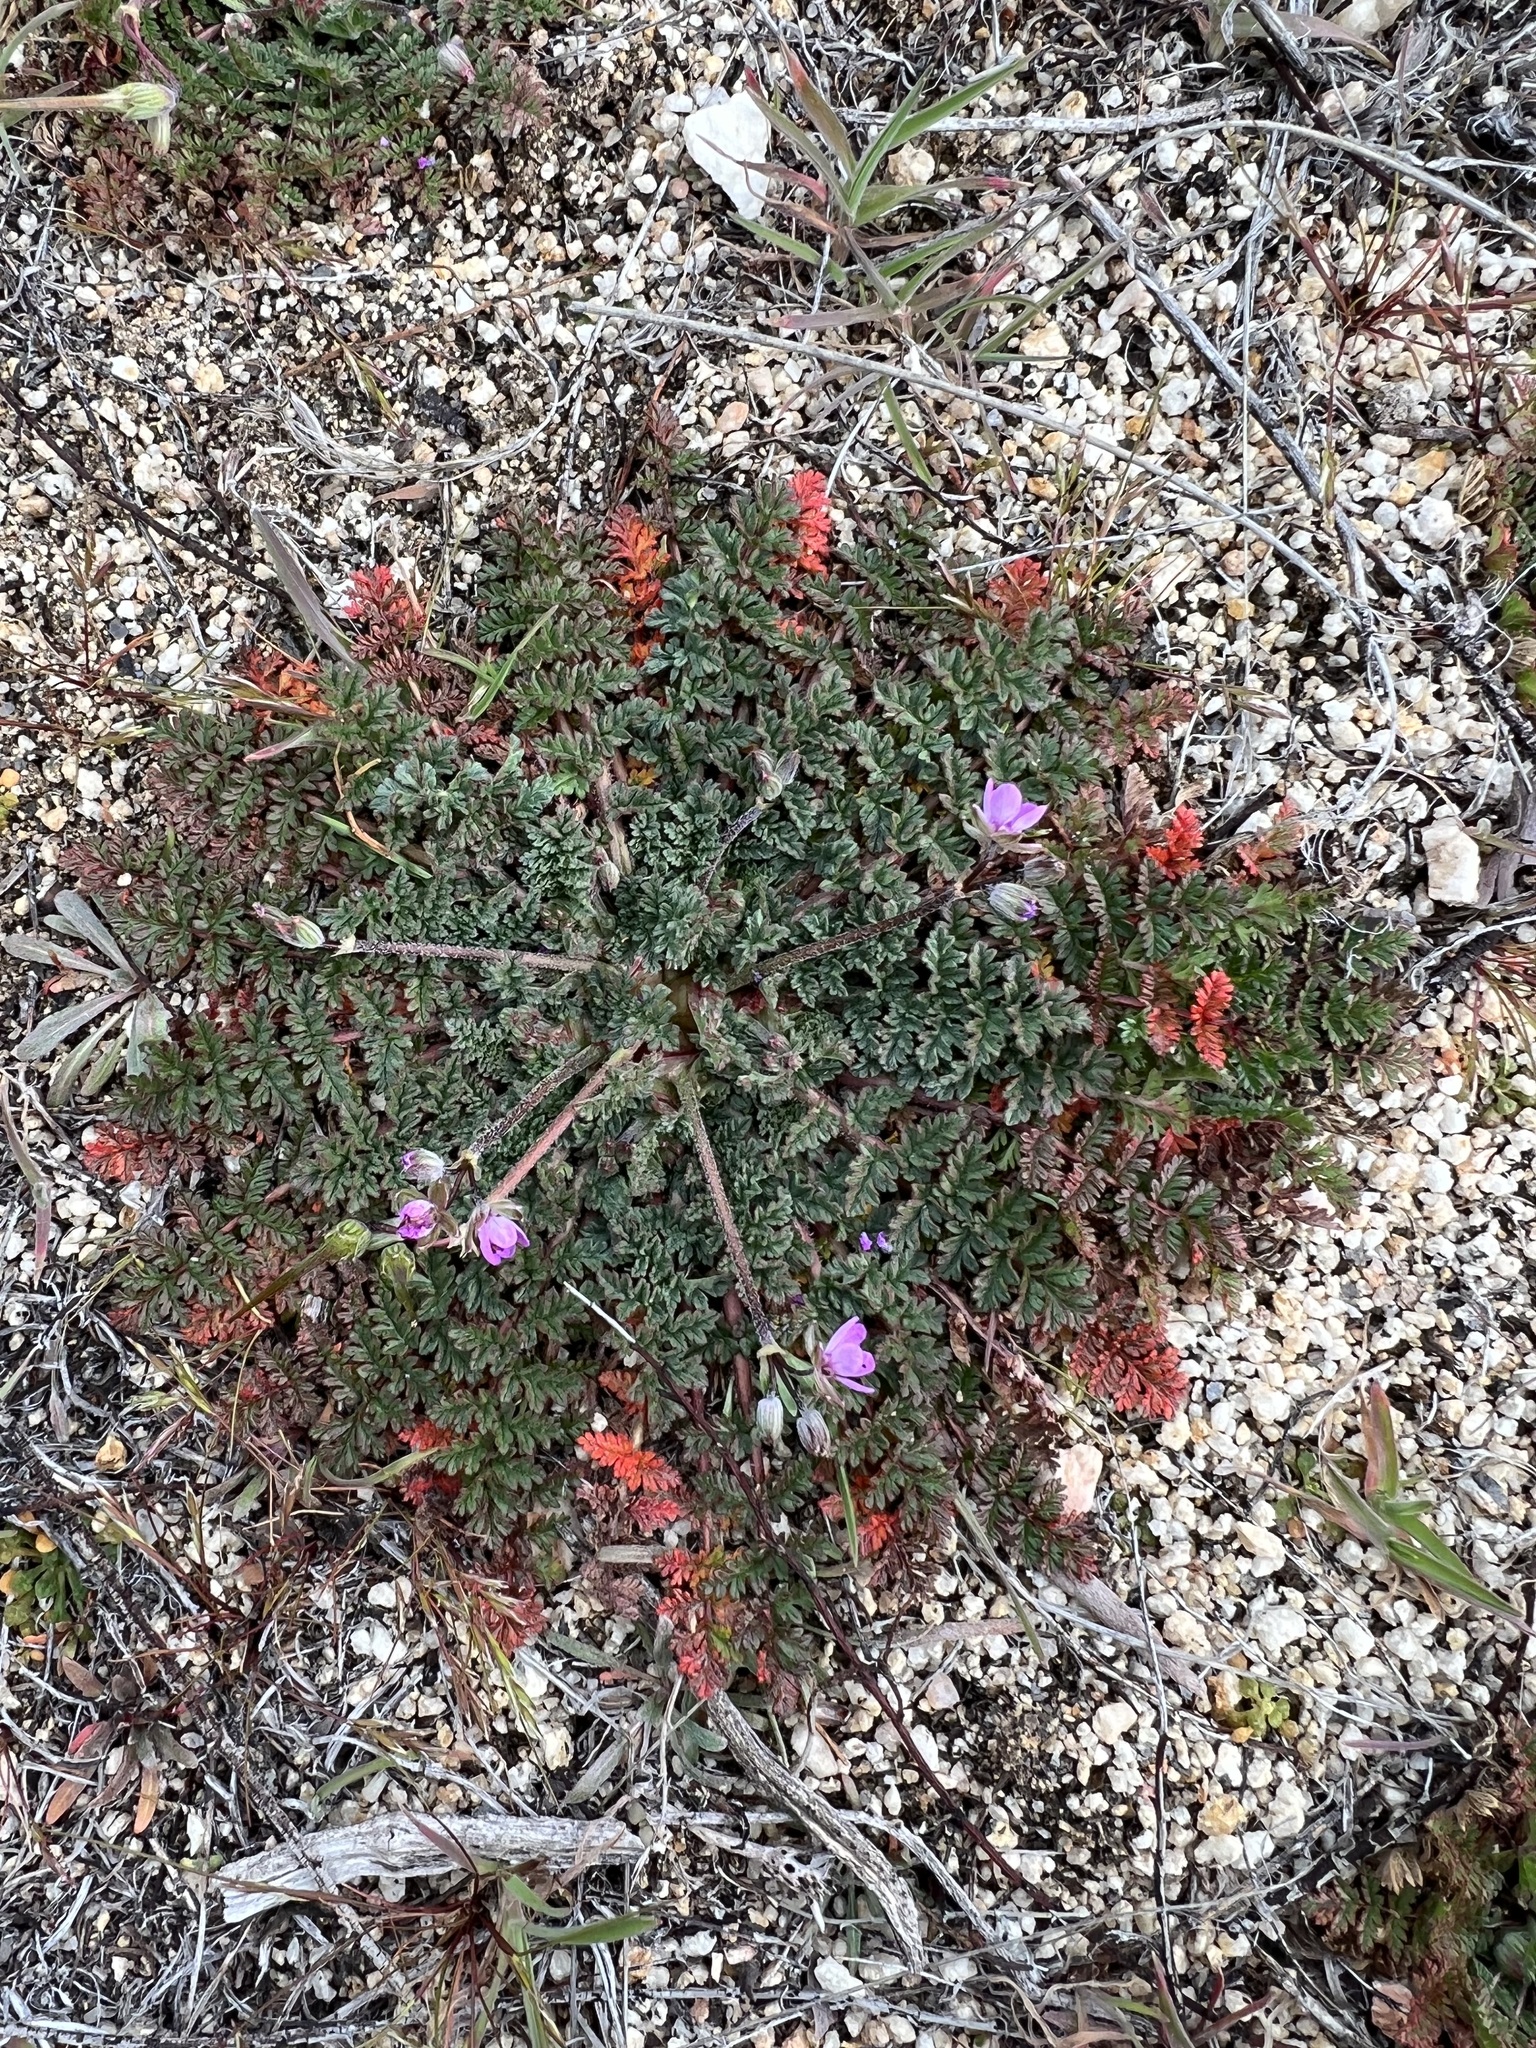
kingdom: Plantae
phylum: Tracheophyta
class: Magnoliopsida
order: Geraniales
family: Geraniaceae
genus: Erodium
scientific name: Erodium cicutarium
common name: Common stork's-bill
